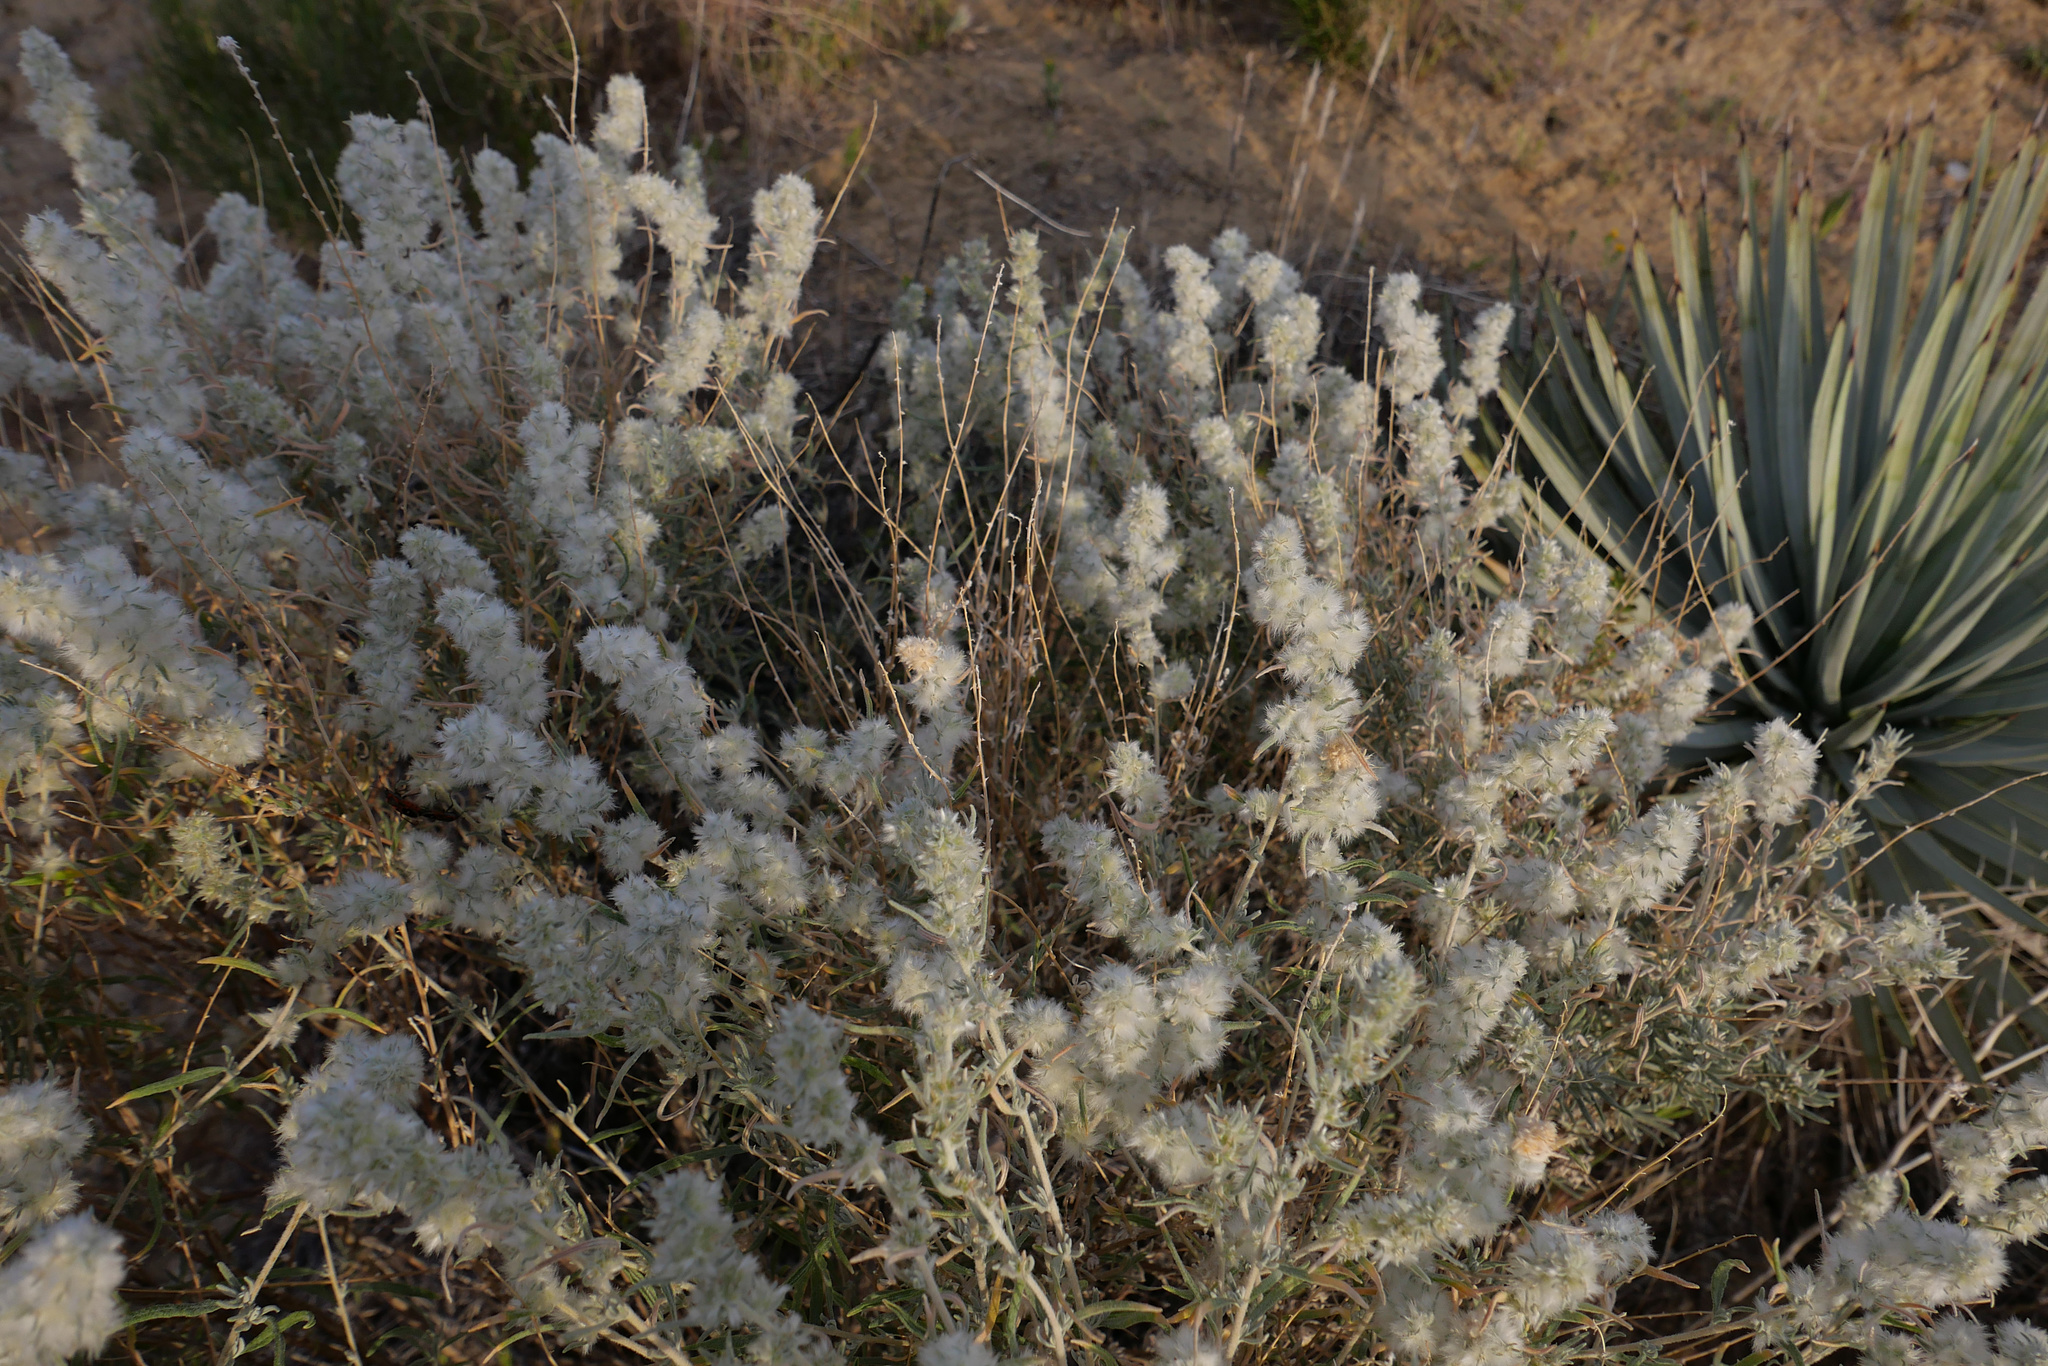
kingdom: Plantae
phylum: Tracheophyta
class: Magnoliopsida
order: Caryophyllales
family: Amaranthaceae
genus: Krascheninnikovia
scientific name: Krascheninnikovia lanata
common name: Winterfat
